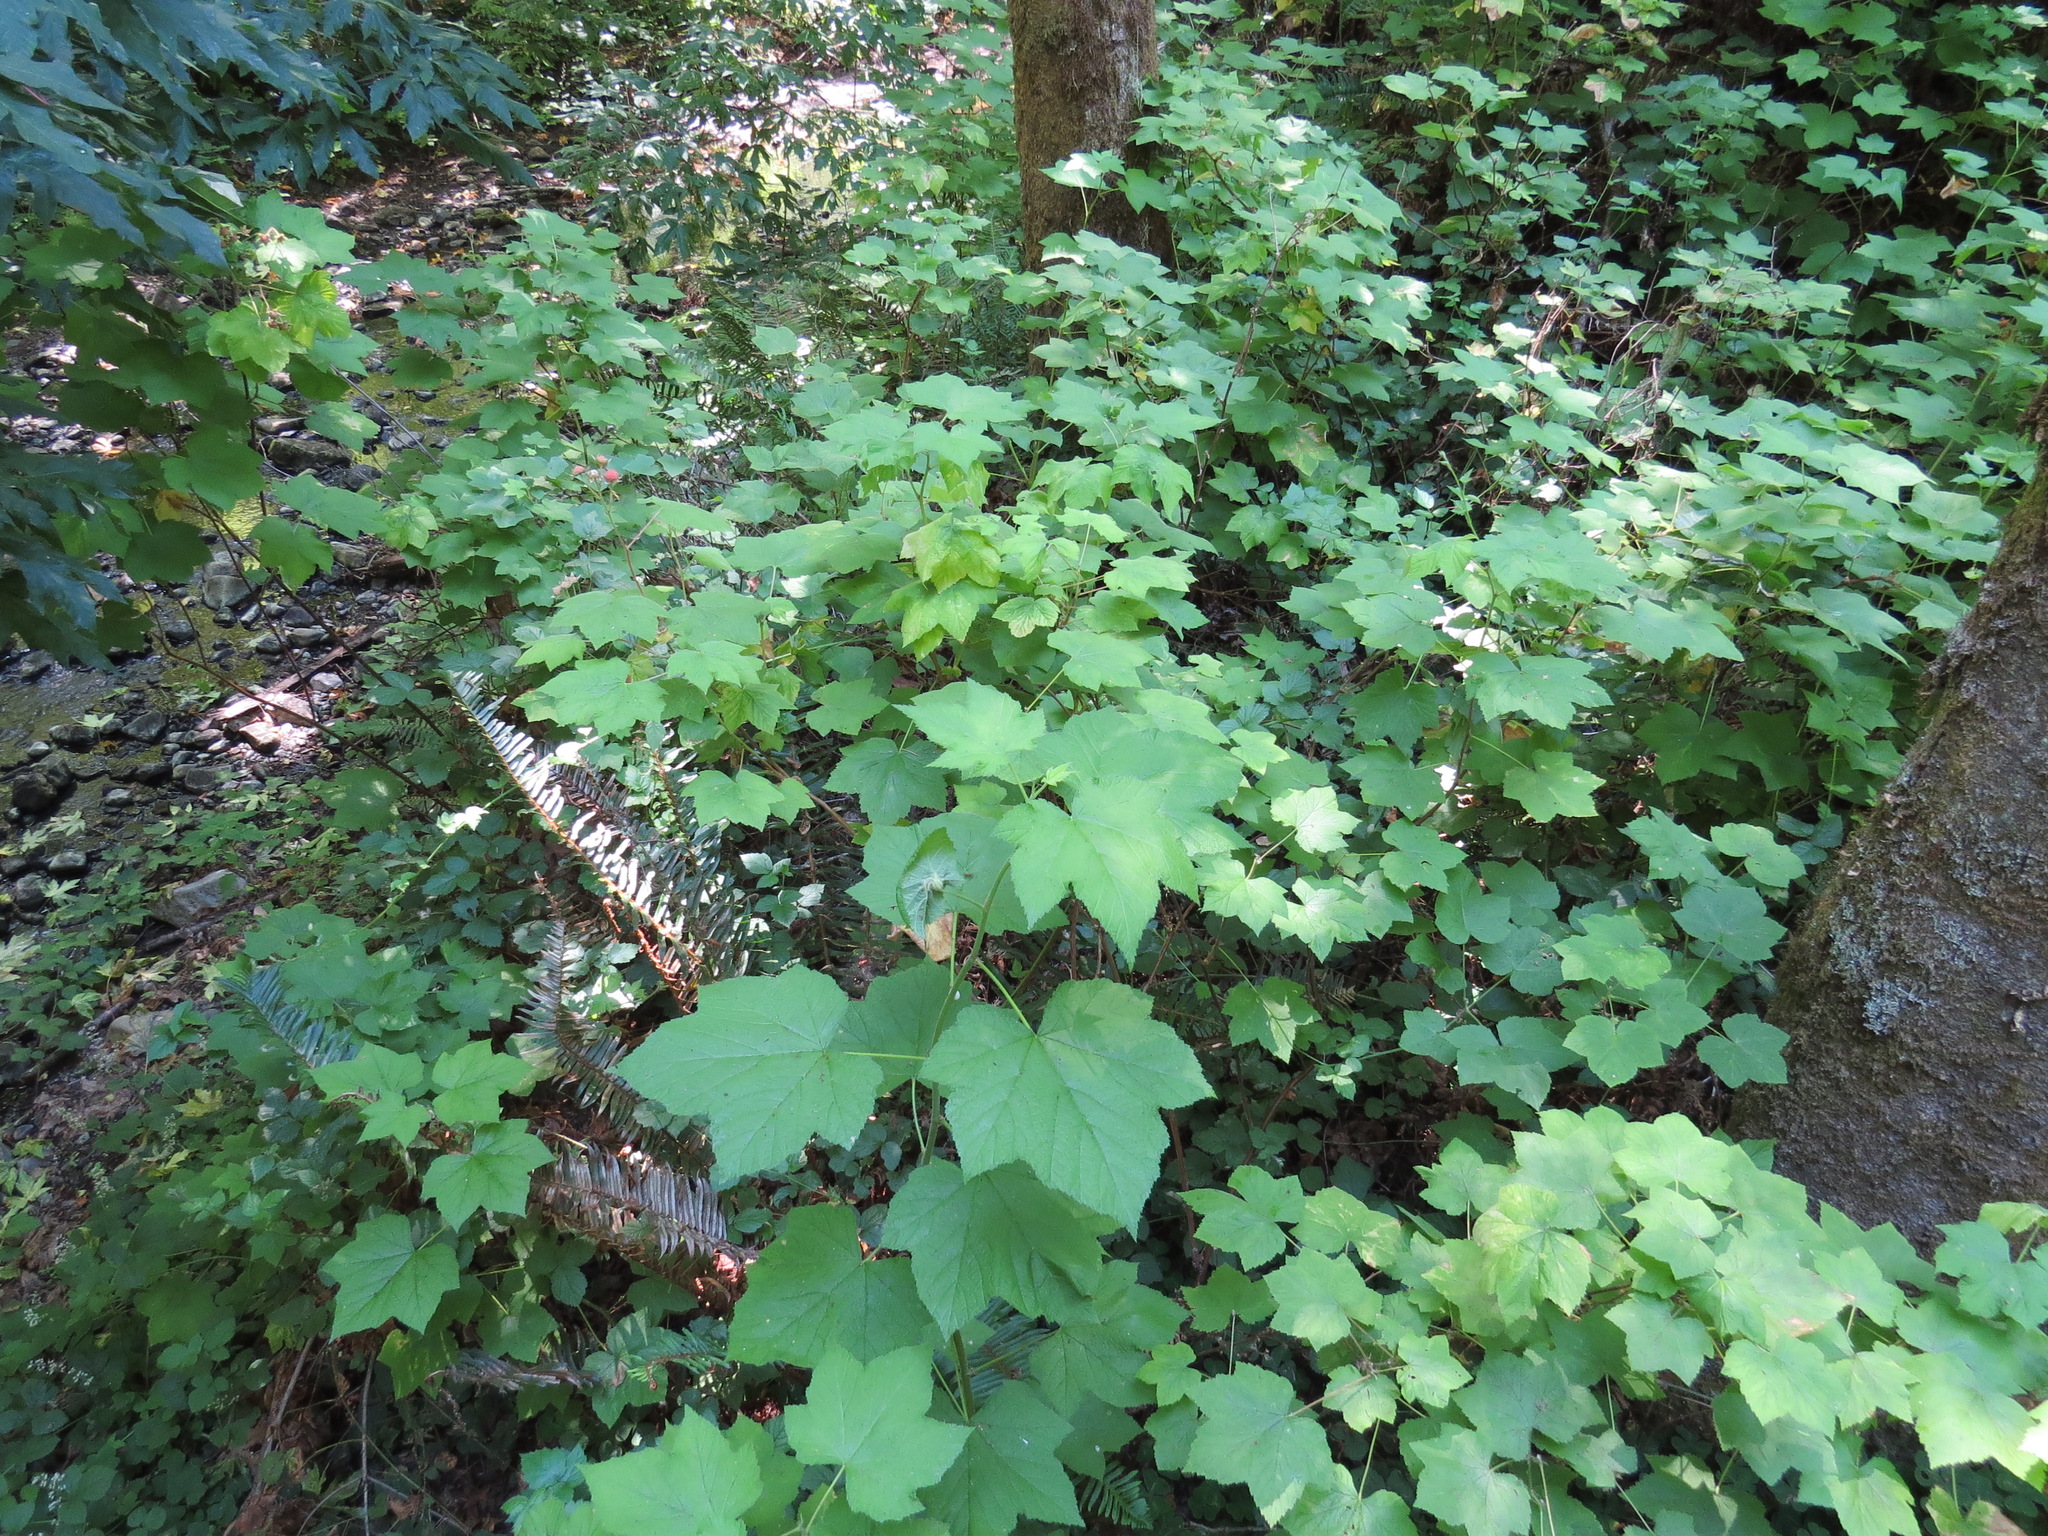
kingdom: Plantae
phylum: Tracheophyta
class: Magnoliopsida
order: Rosales
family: Rosaceae
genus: Rubus
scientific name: Rubus parviflorus
